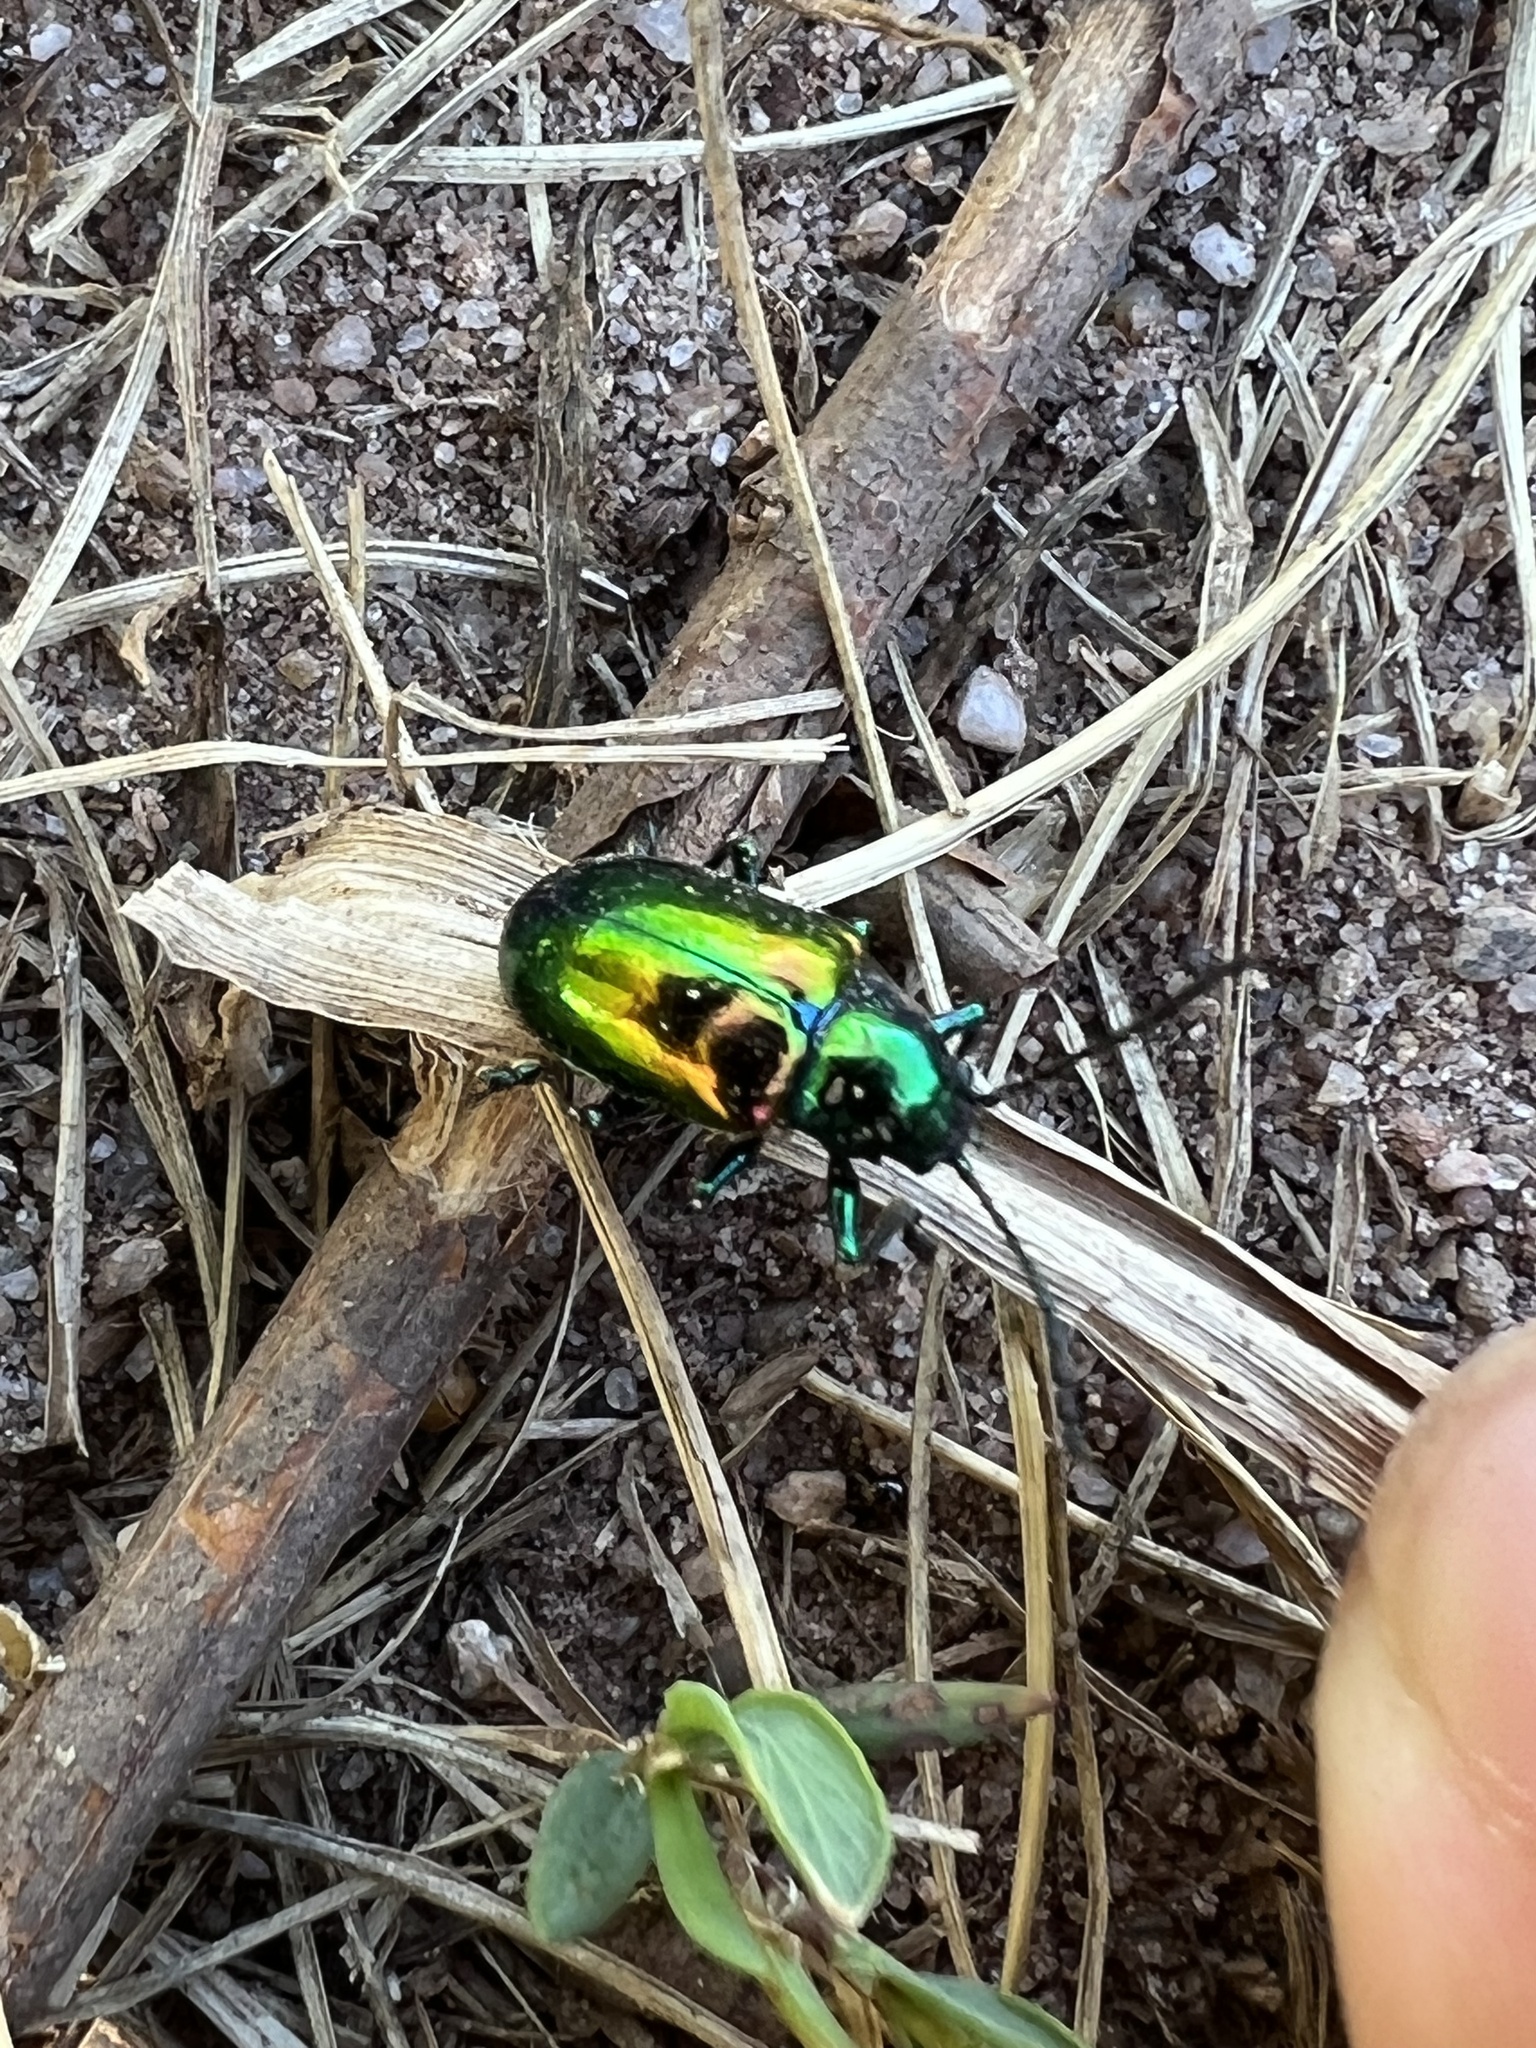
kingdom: Animalia
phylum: Arthropoda
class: Insecta
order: Coleoptera
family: Chrysomelidae
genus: Chrysochus
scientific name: Chrysochus auratus
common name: Dogbane leaf beetle
